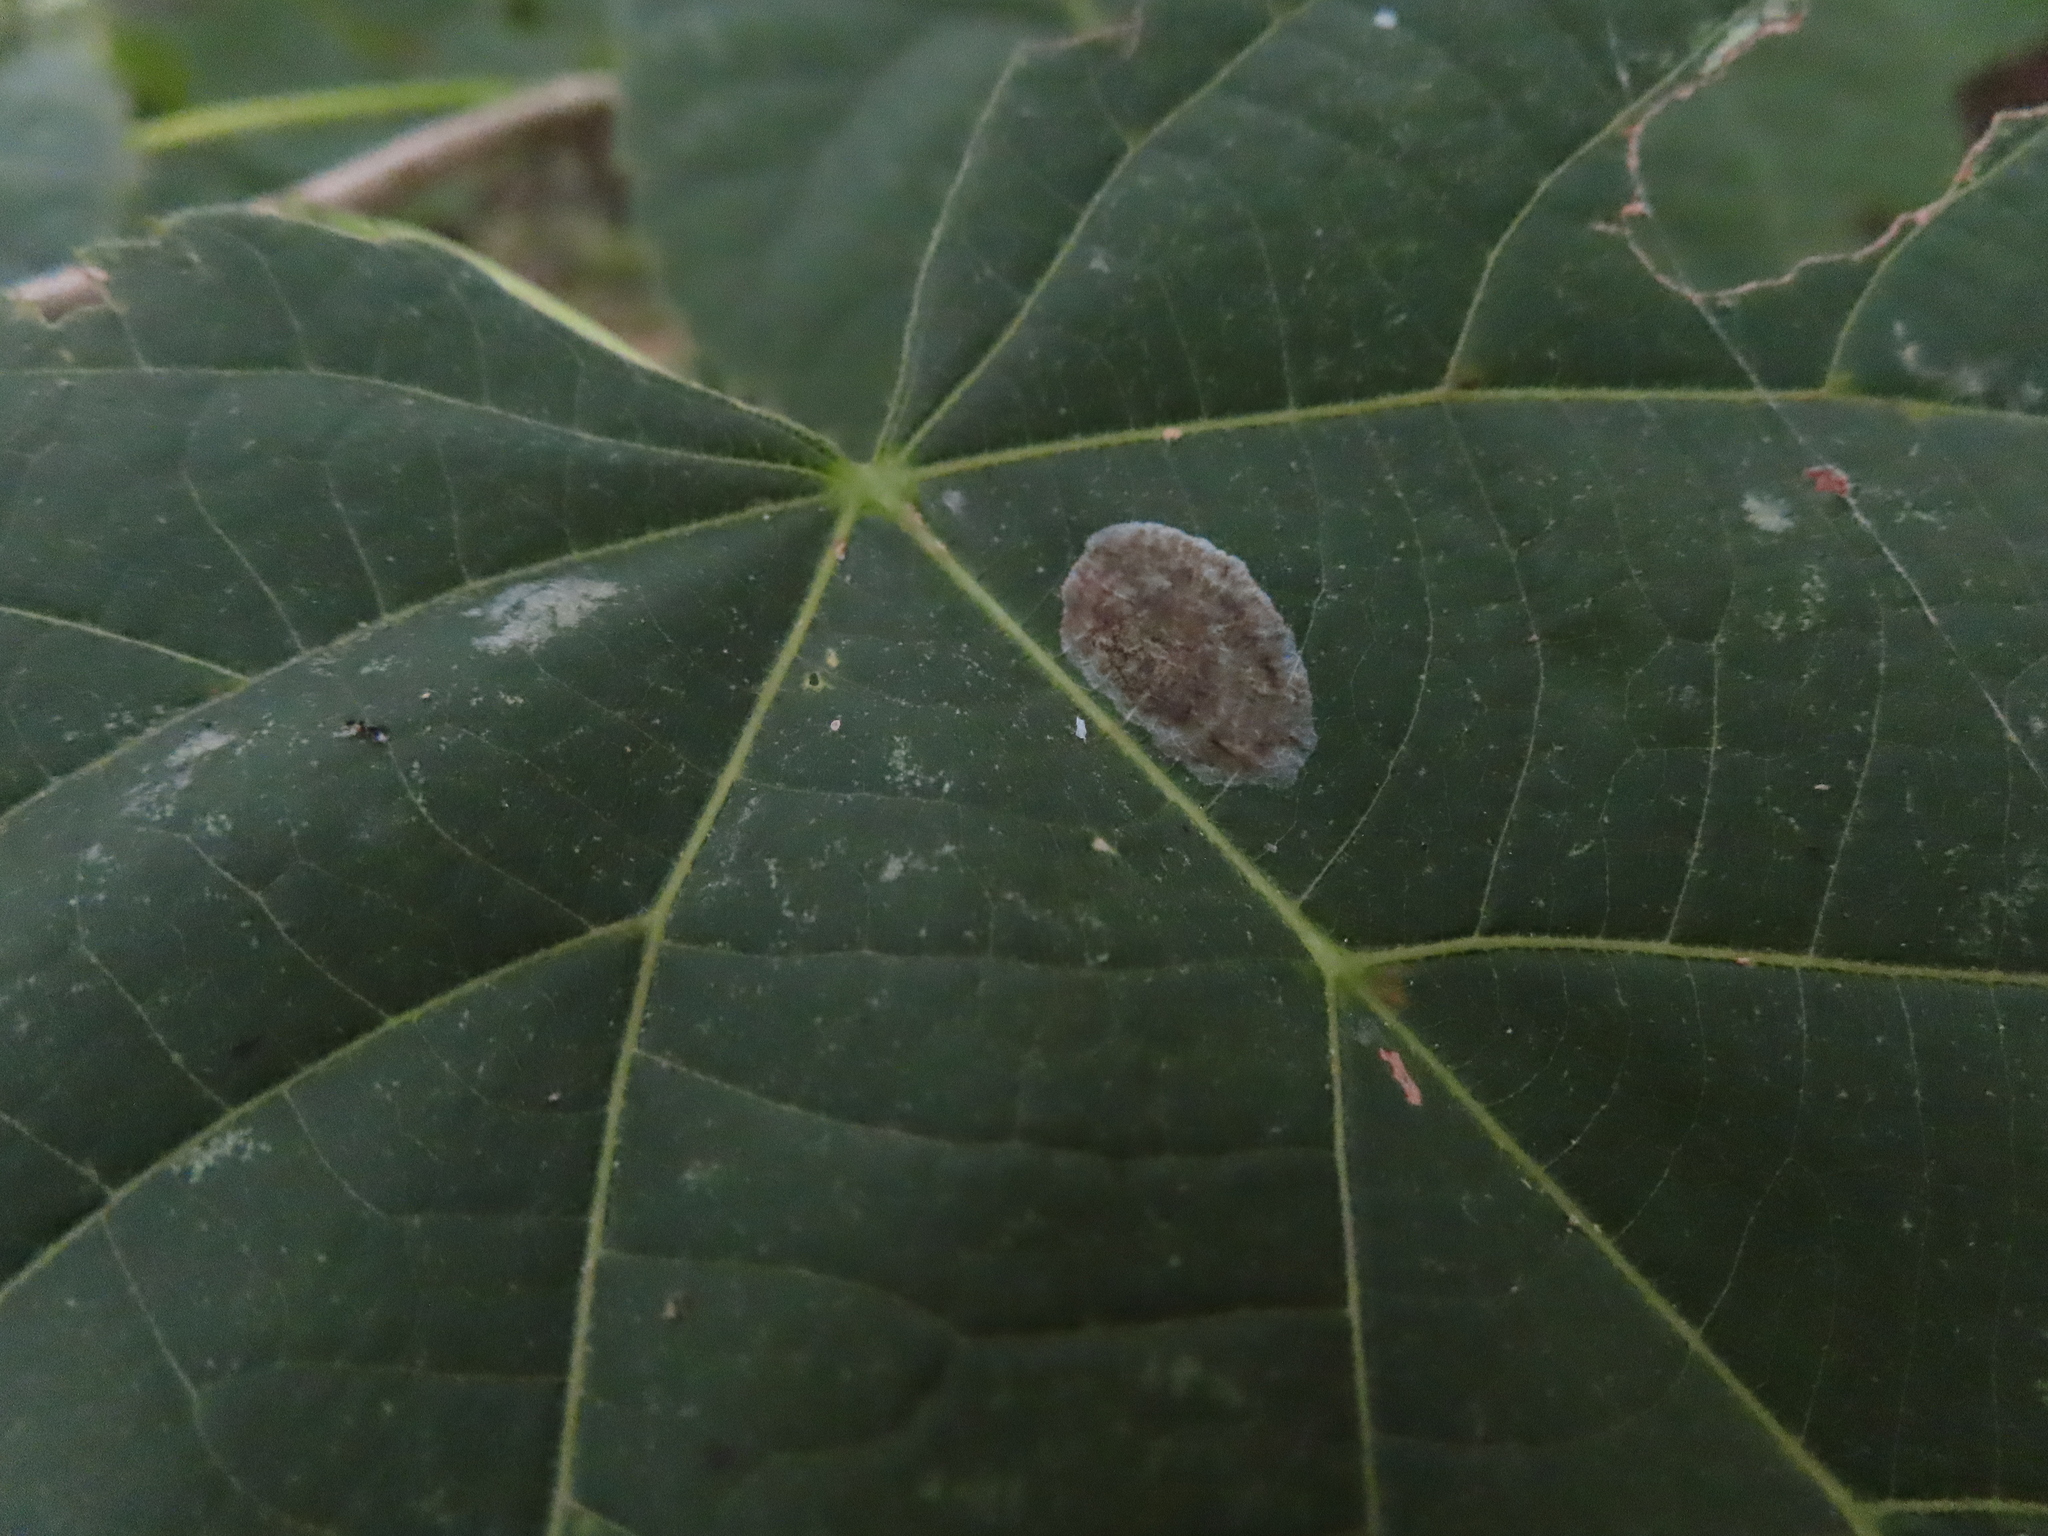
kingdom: Animalia
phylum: Arthropoda
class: Insecta
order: Lepidoptera
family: Gracillariidae
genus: Phyllonorycter
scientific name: Phyllonorycter tiliacella
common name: Basswood round-blotch miner moth
